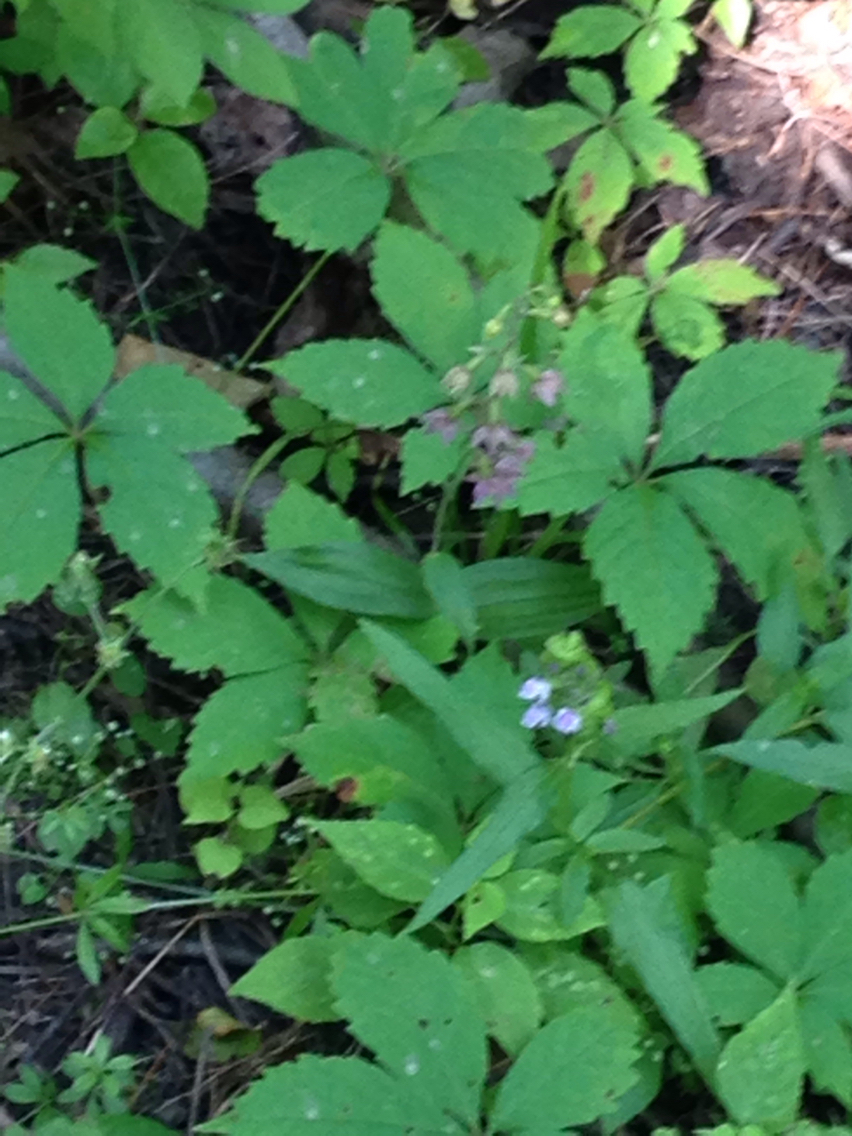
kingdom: Plantae
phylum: Tracheophyta
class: Liliopsida
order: Asparagales
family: Orchidaceae
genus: Epipactis
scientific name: Epipactis helleborine
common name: Broad-leaved helleborine
